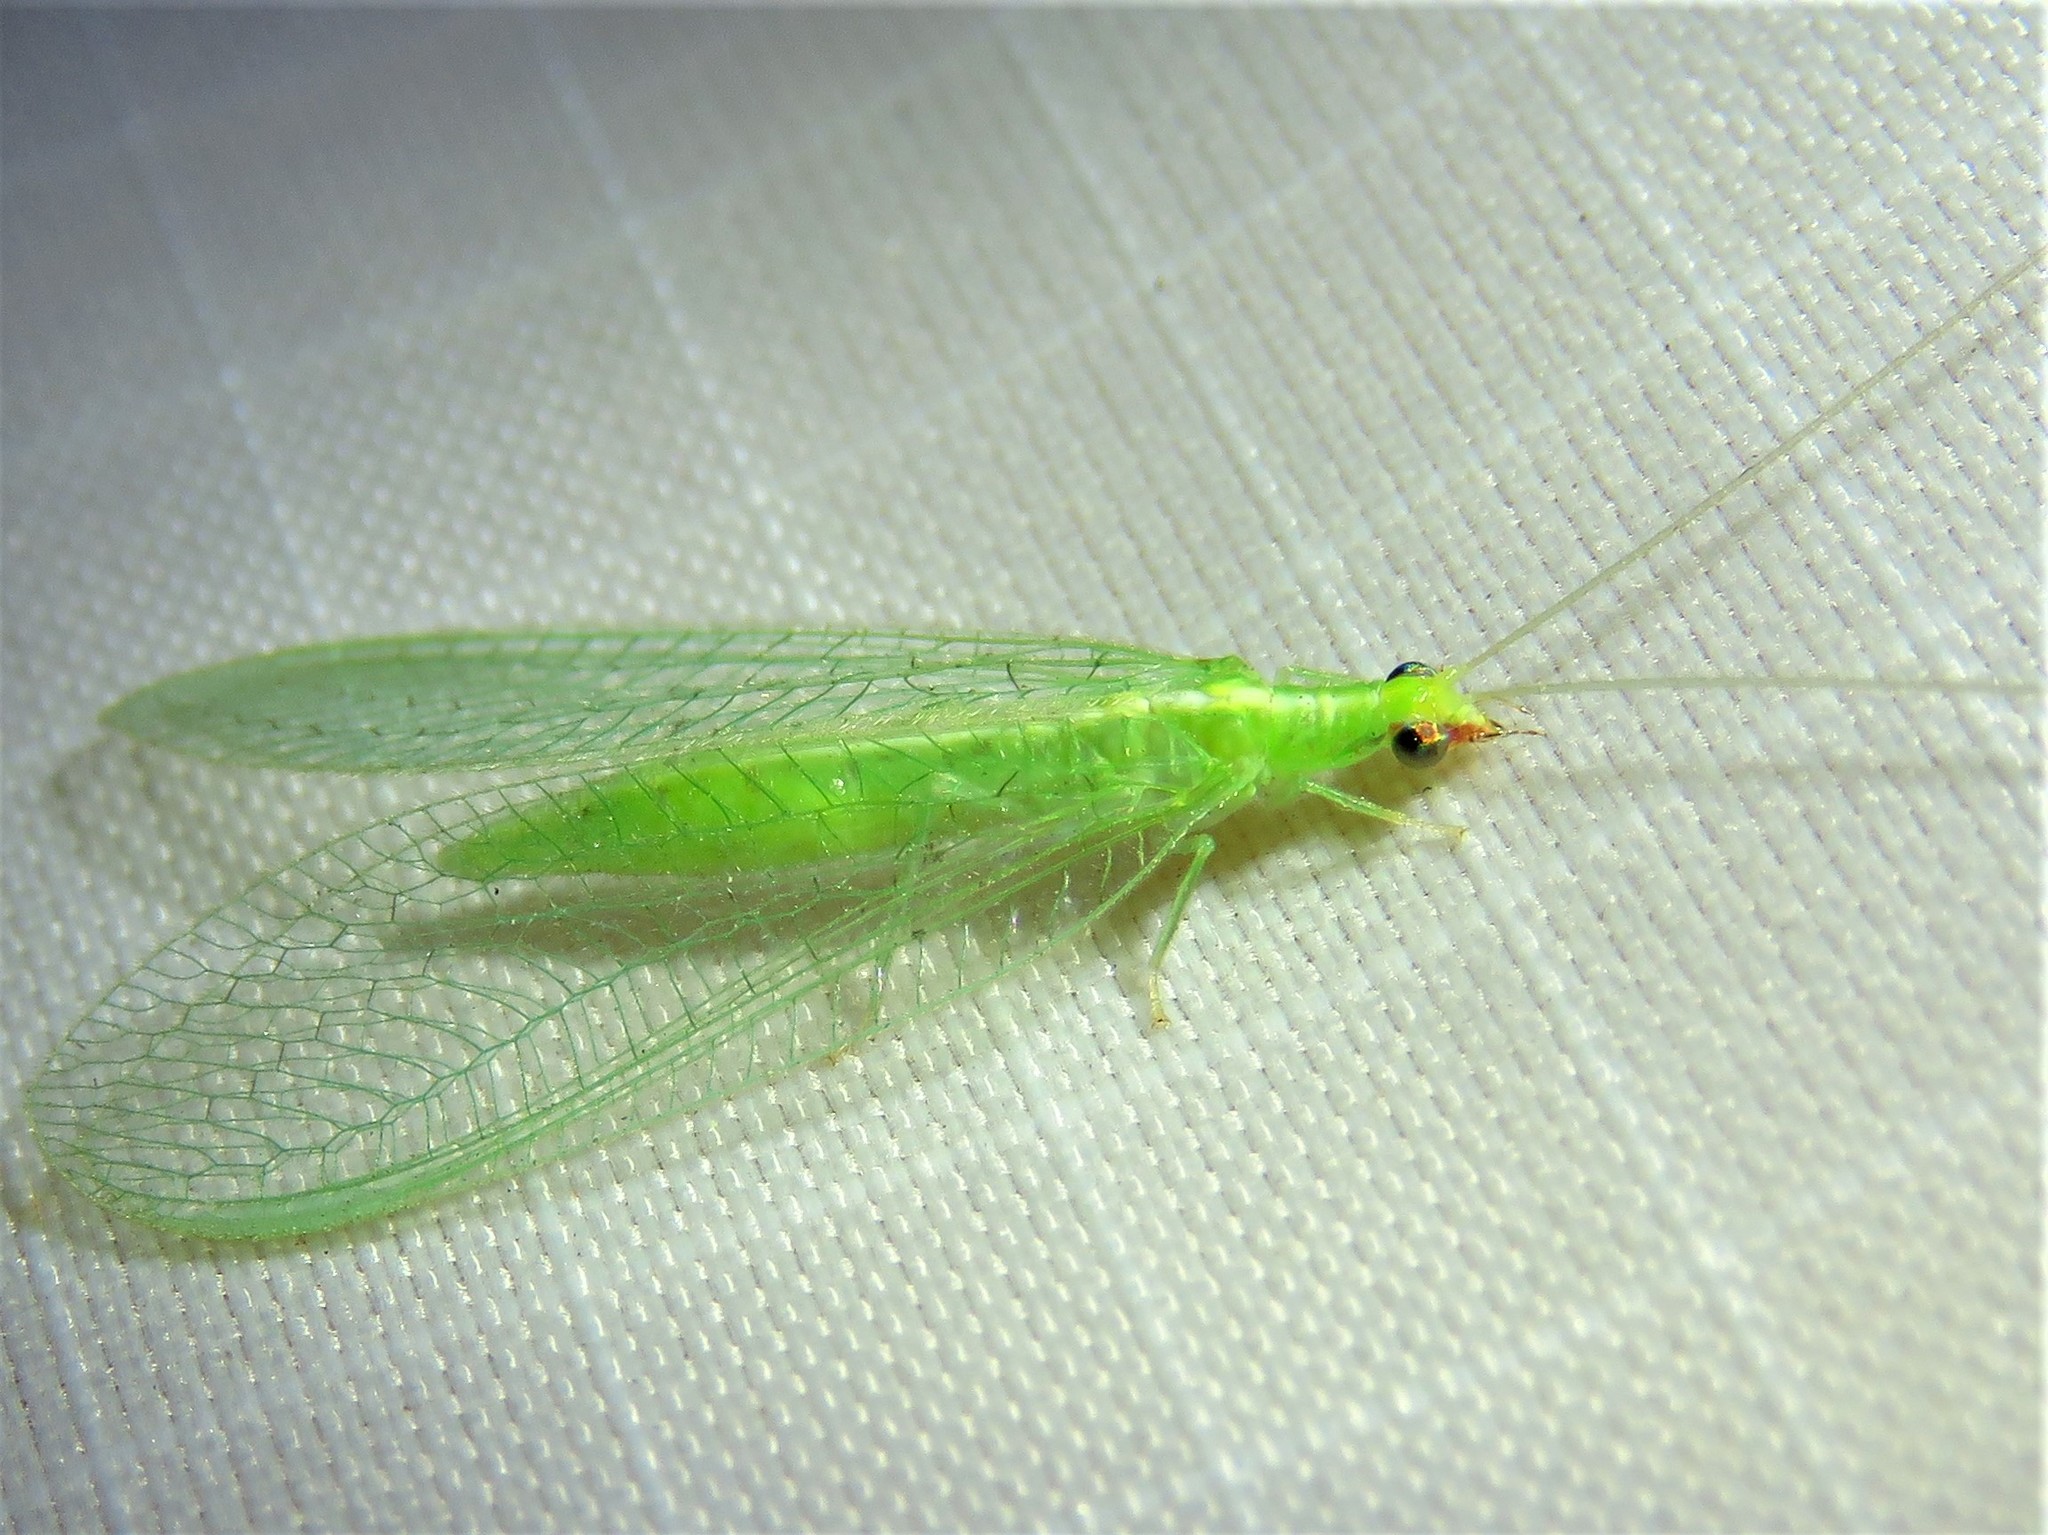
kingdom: Animalia
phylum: Arthropoda
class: Insecta
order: Neuroptera
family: Chrysopidae
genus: Chrysoperla
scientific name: Chrysoperla rufilabris
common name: Red-lipped green lacewing
